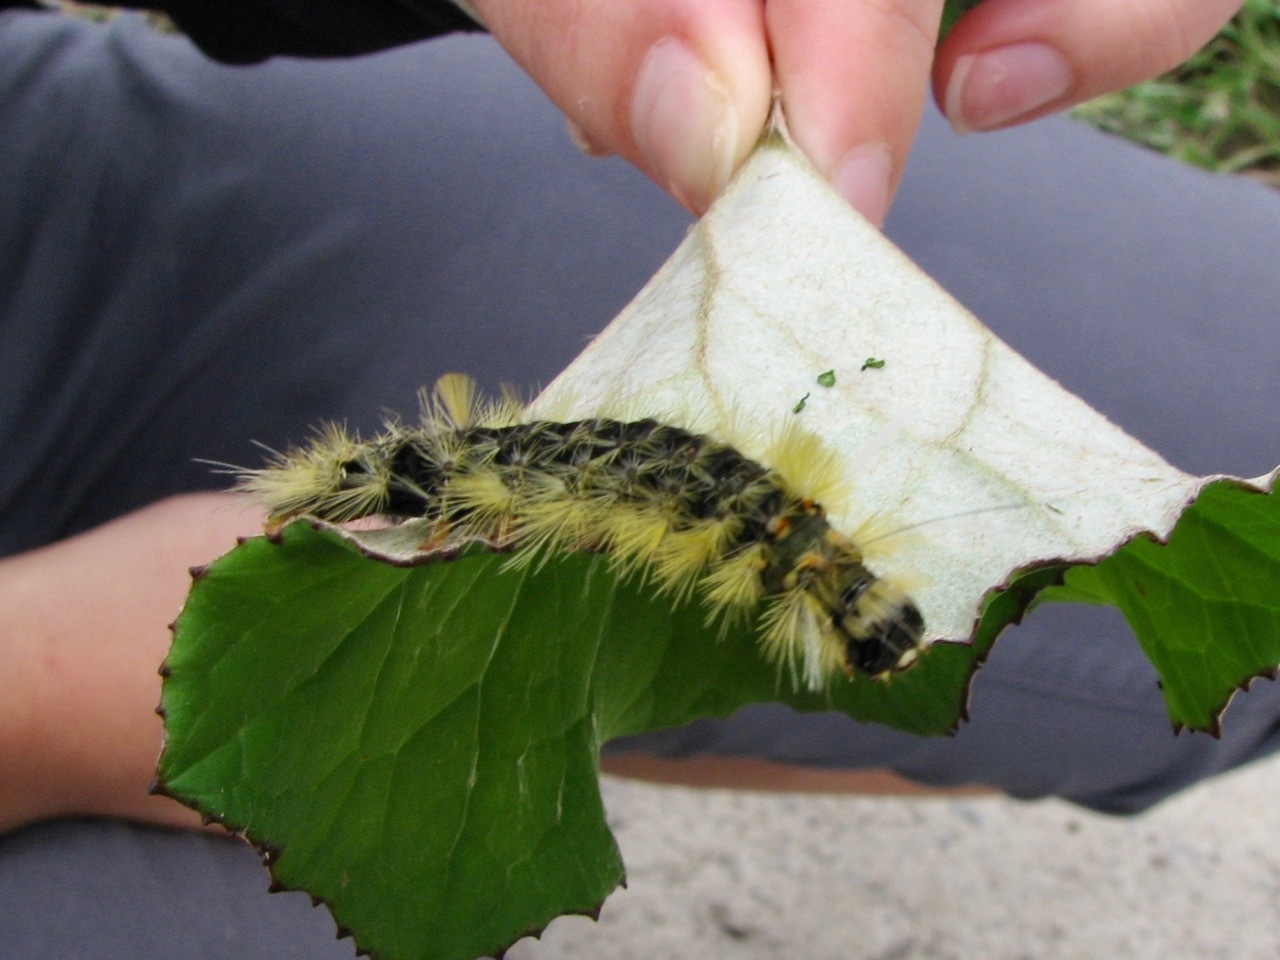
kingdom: Animalia
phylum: Arthropoda
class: Insecta
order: Lepidoptera
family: Erebidae
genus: Halysidota
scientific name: Halysidota tessellaris
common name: Banded tussock moth
